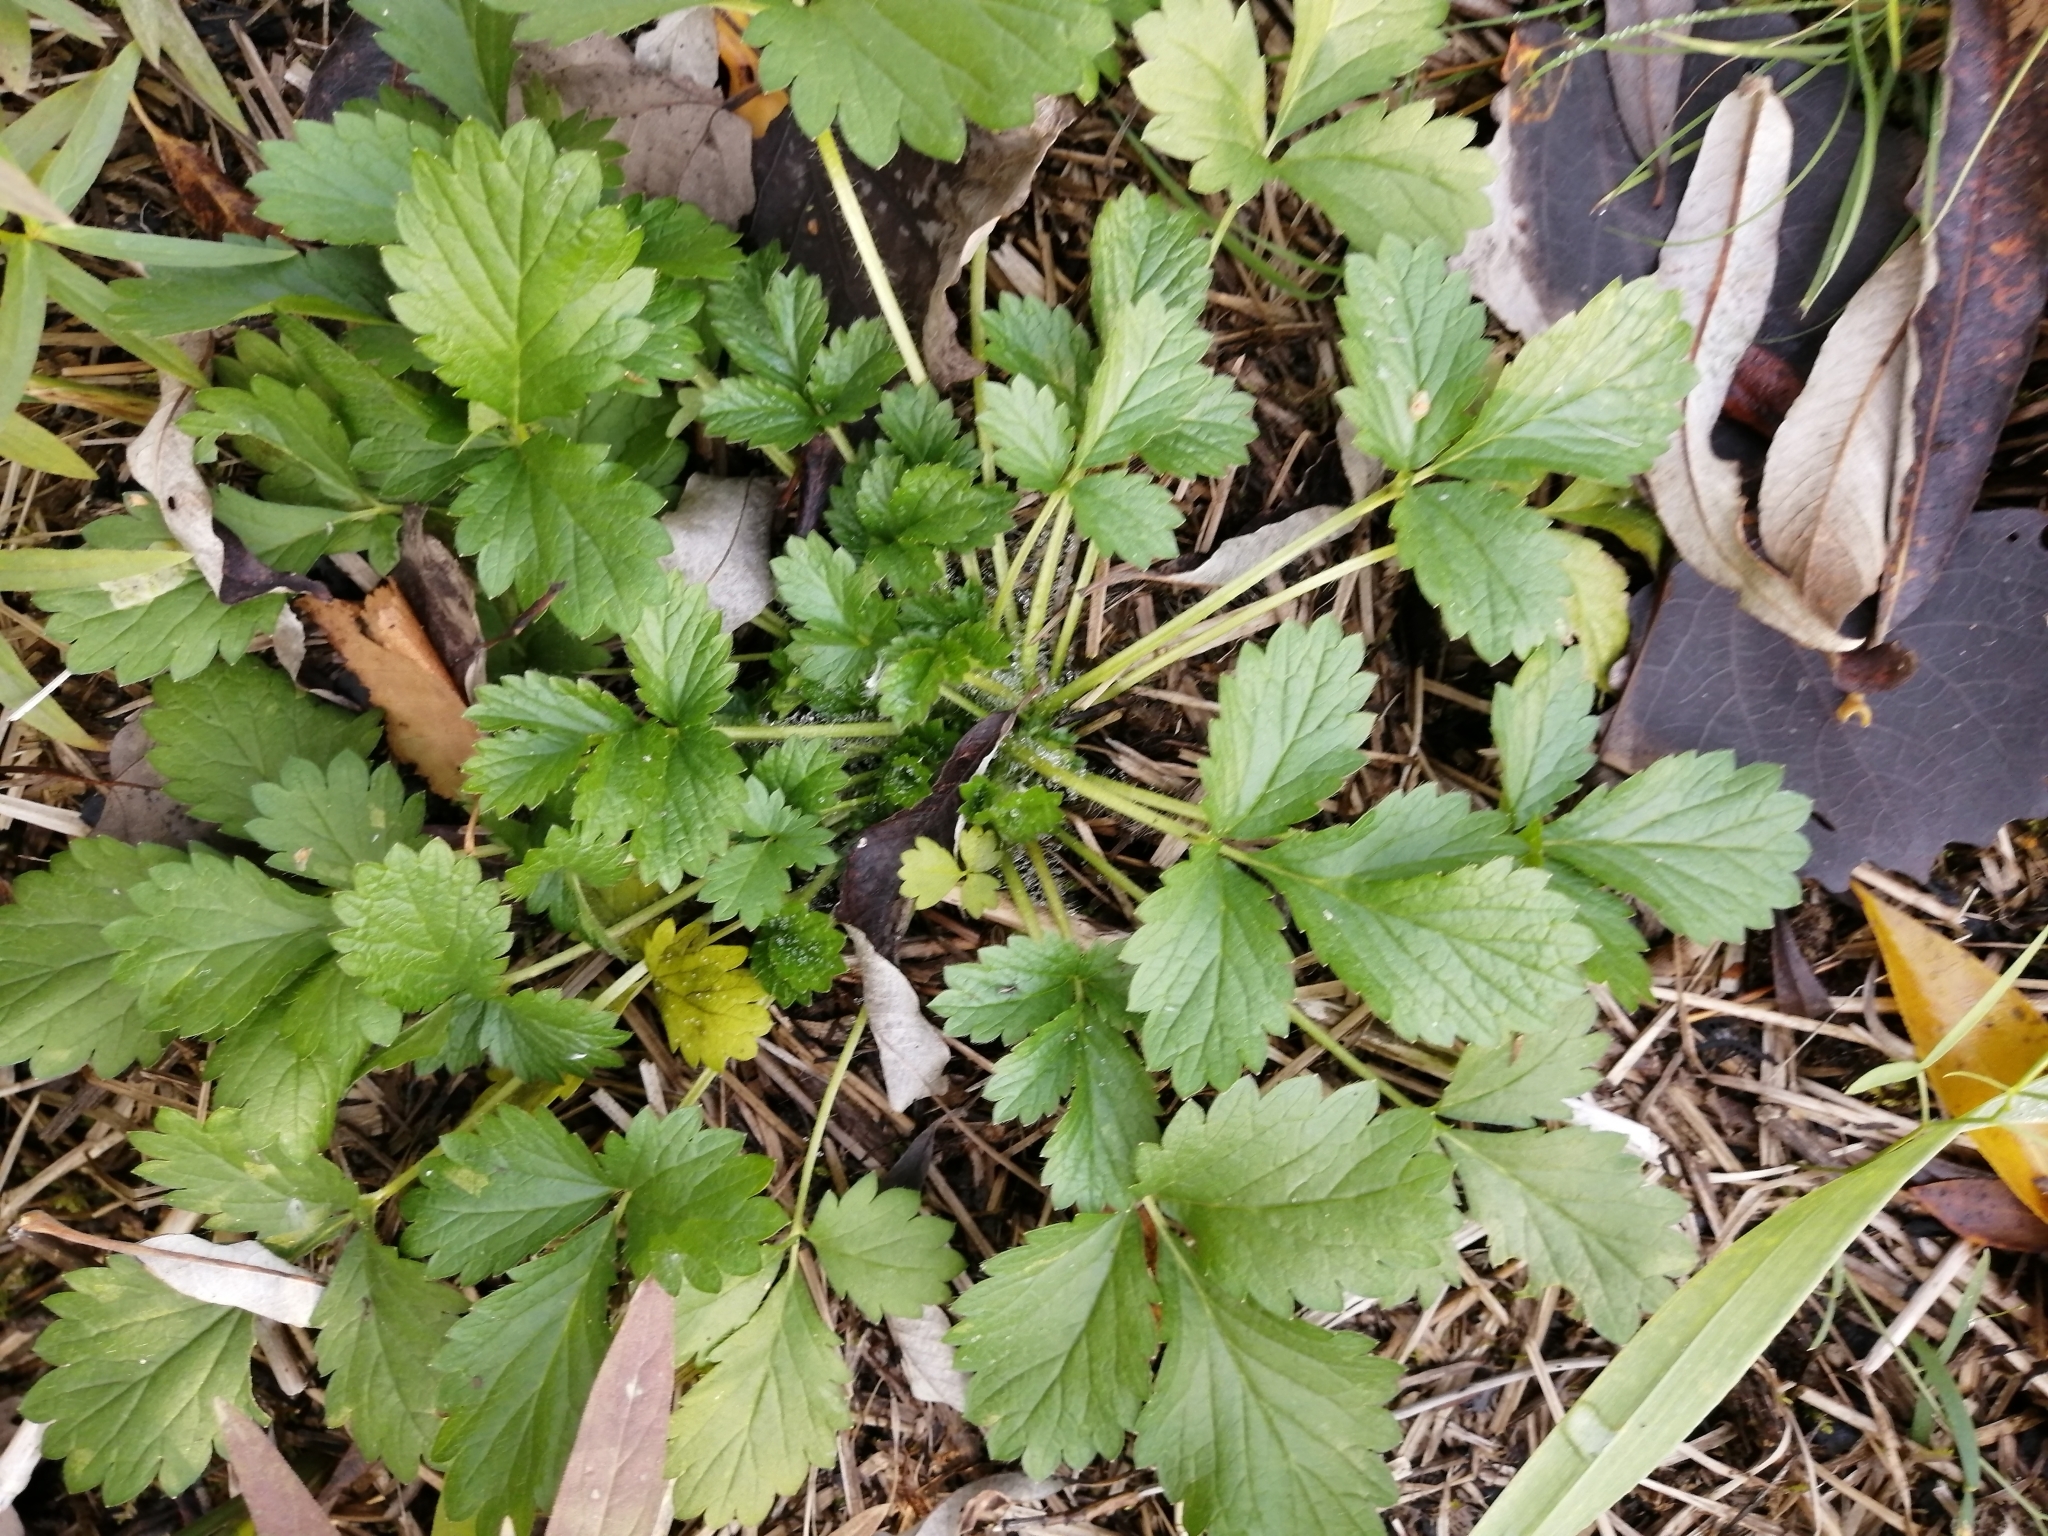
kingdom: Plantae
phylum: Tracheophyta
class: Magnoliopsida
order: Rosales
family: Rosaceae
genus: Potentilla
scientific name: Potentilla norvegica
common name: Ternate-leaved cinquefoil
